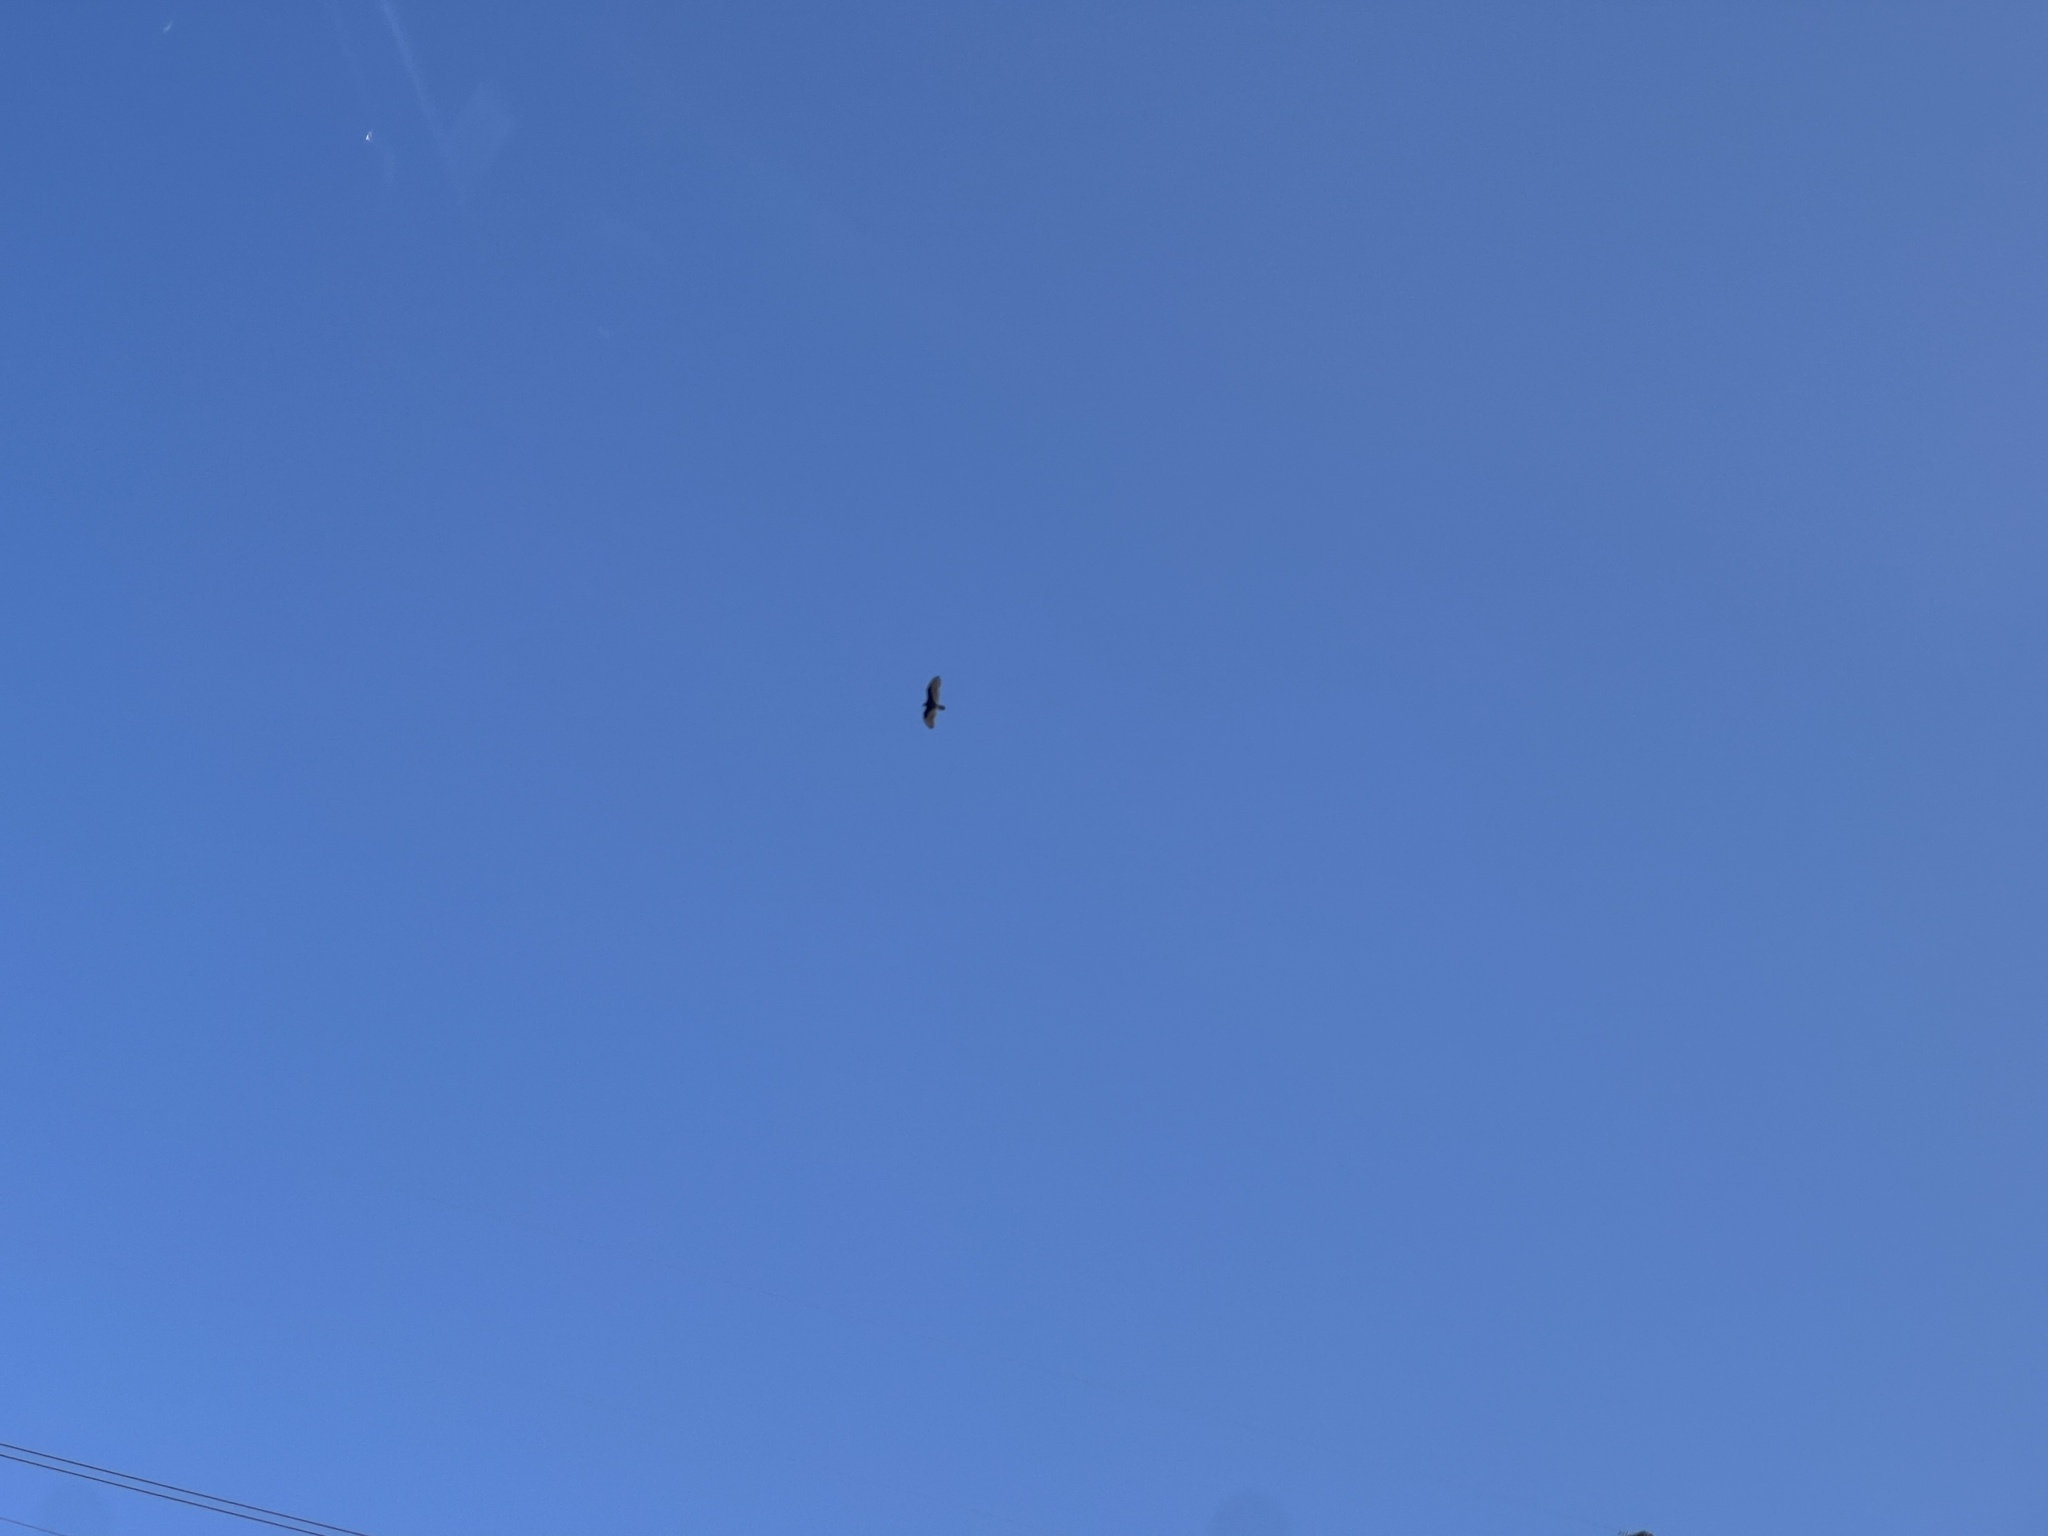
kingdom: Animalia
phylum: Chordata
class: Aves
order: Accipitriformes
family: Cathartidae
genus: Cathartes
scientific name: Cathartes aura
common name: Turkey vulture
